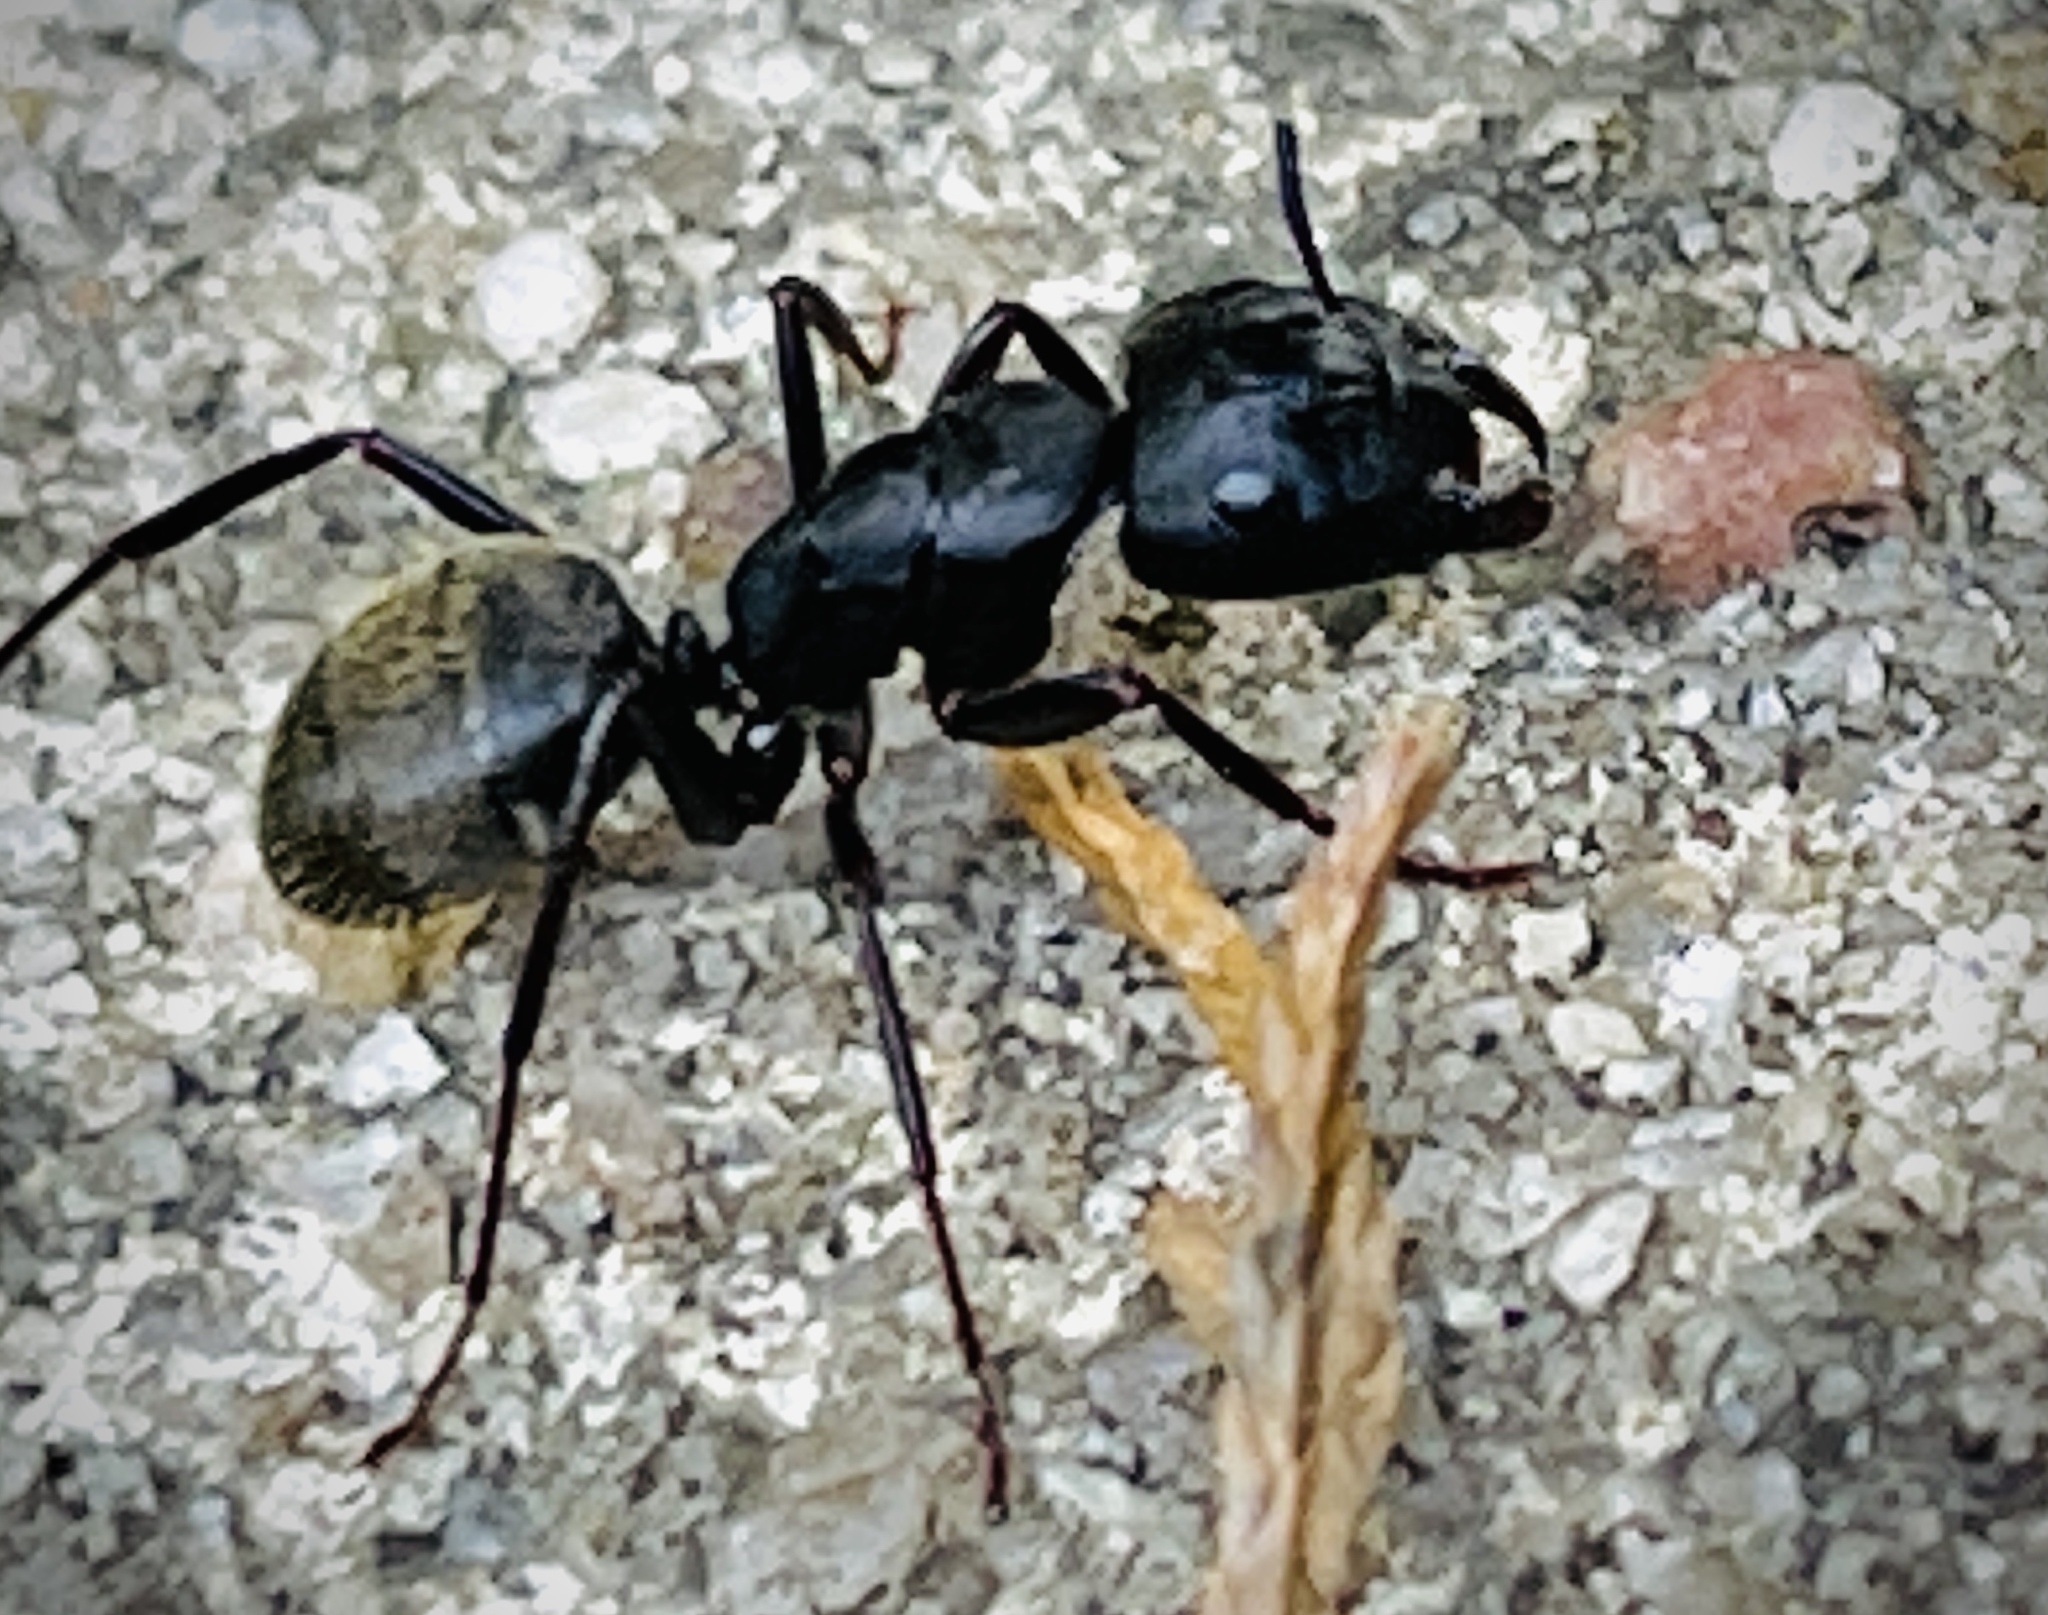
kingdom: Animalia
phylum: Arthropoda
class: Insecta
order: Hymenoptera
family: Formicidae
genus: Camponotus
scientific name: Camponotus pennsylvanicus
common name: Black carpenter ant
